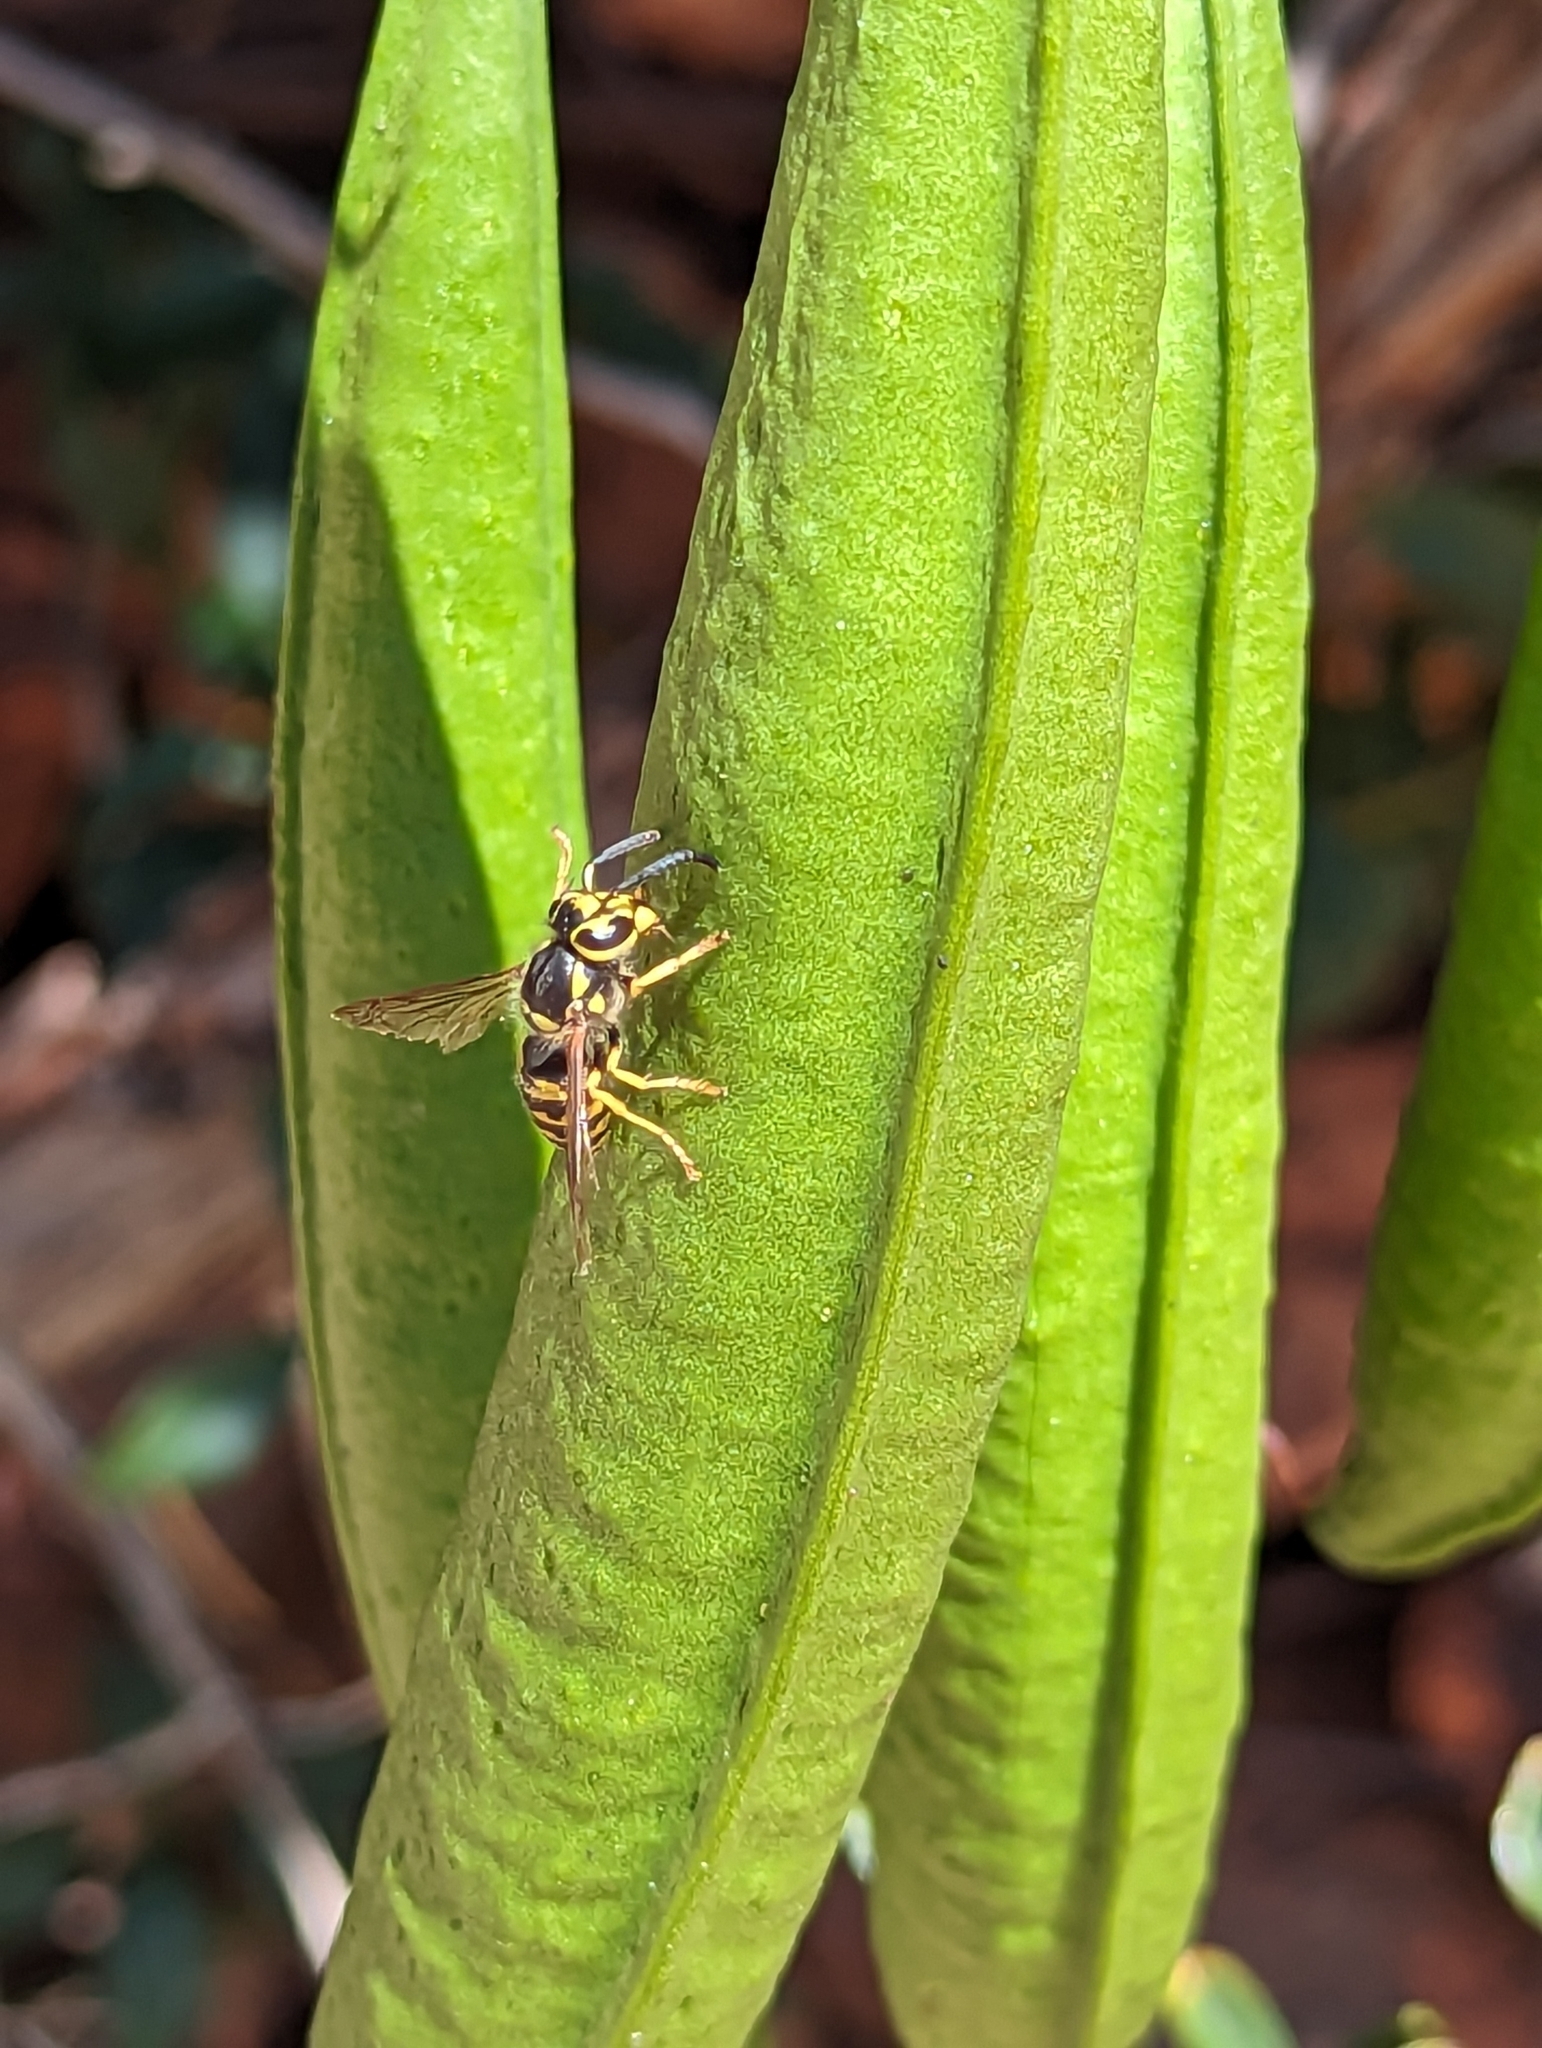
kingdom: Animalia
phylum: Arthropoda
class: Insecta
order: Hymenoptera
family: Vespidae
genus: Vespula
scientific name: Vespula pensylvanica
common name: Western yellowjacket
